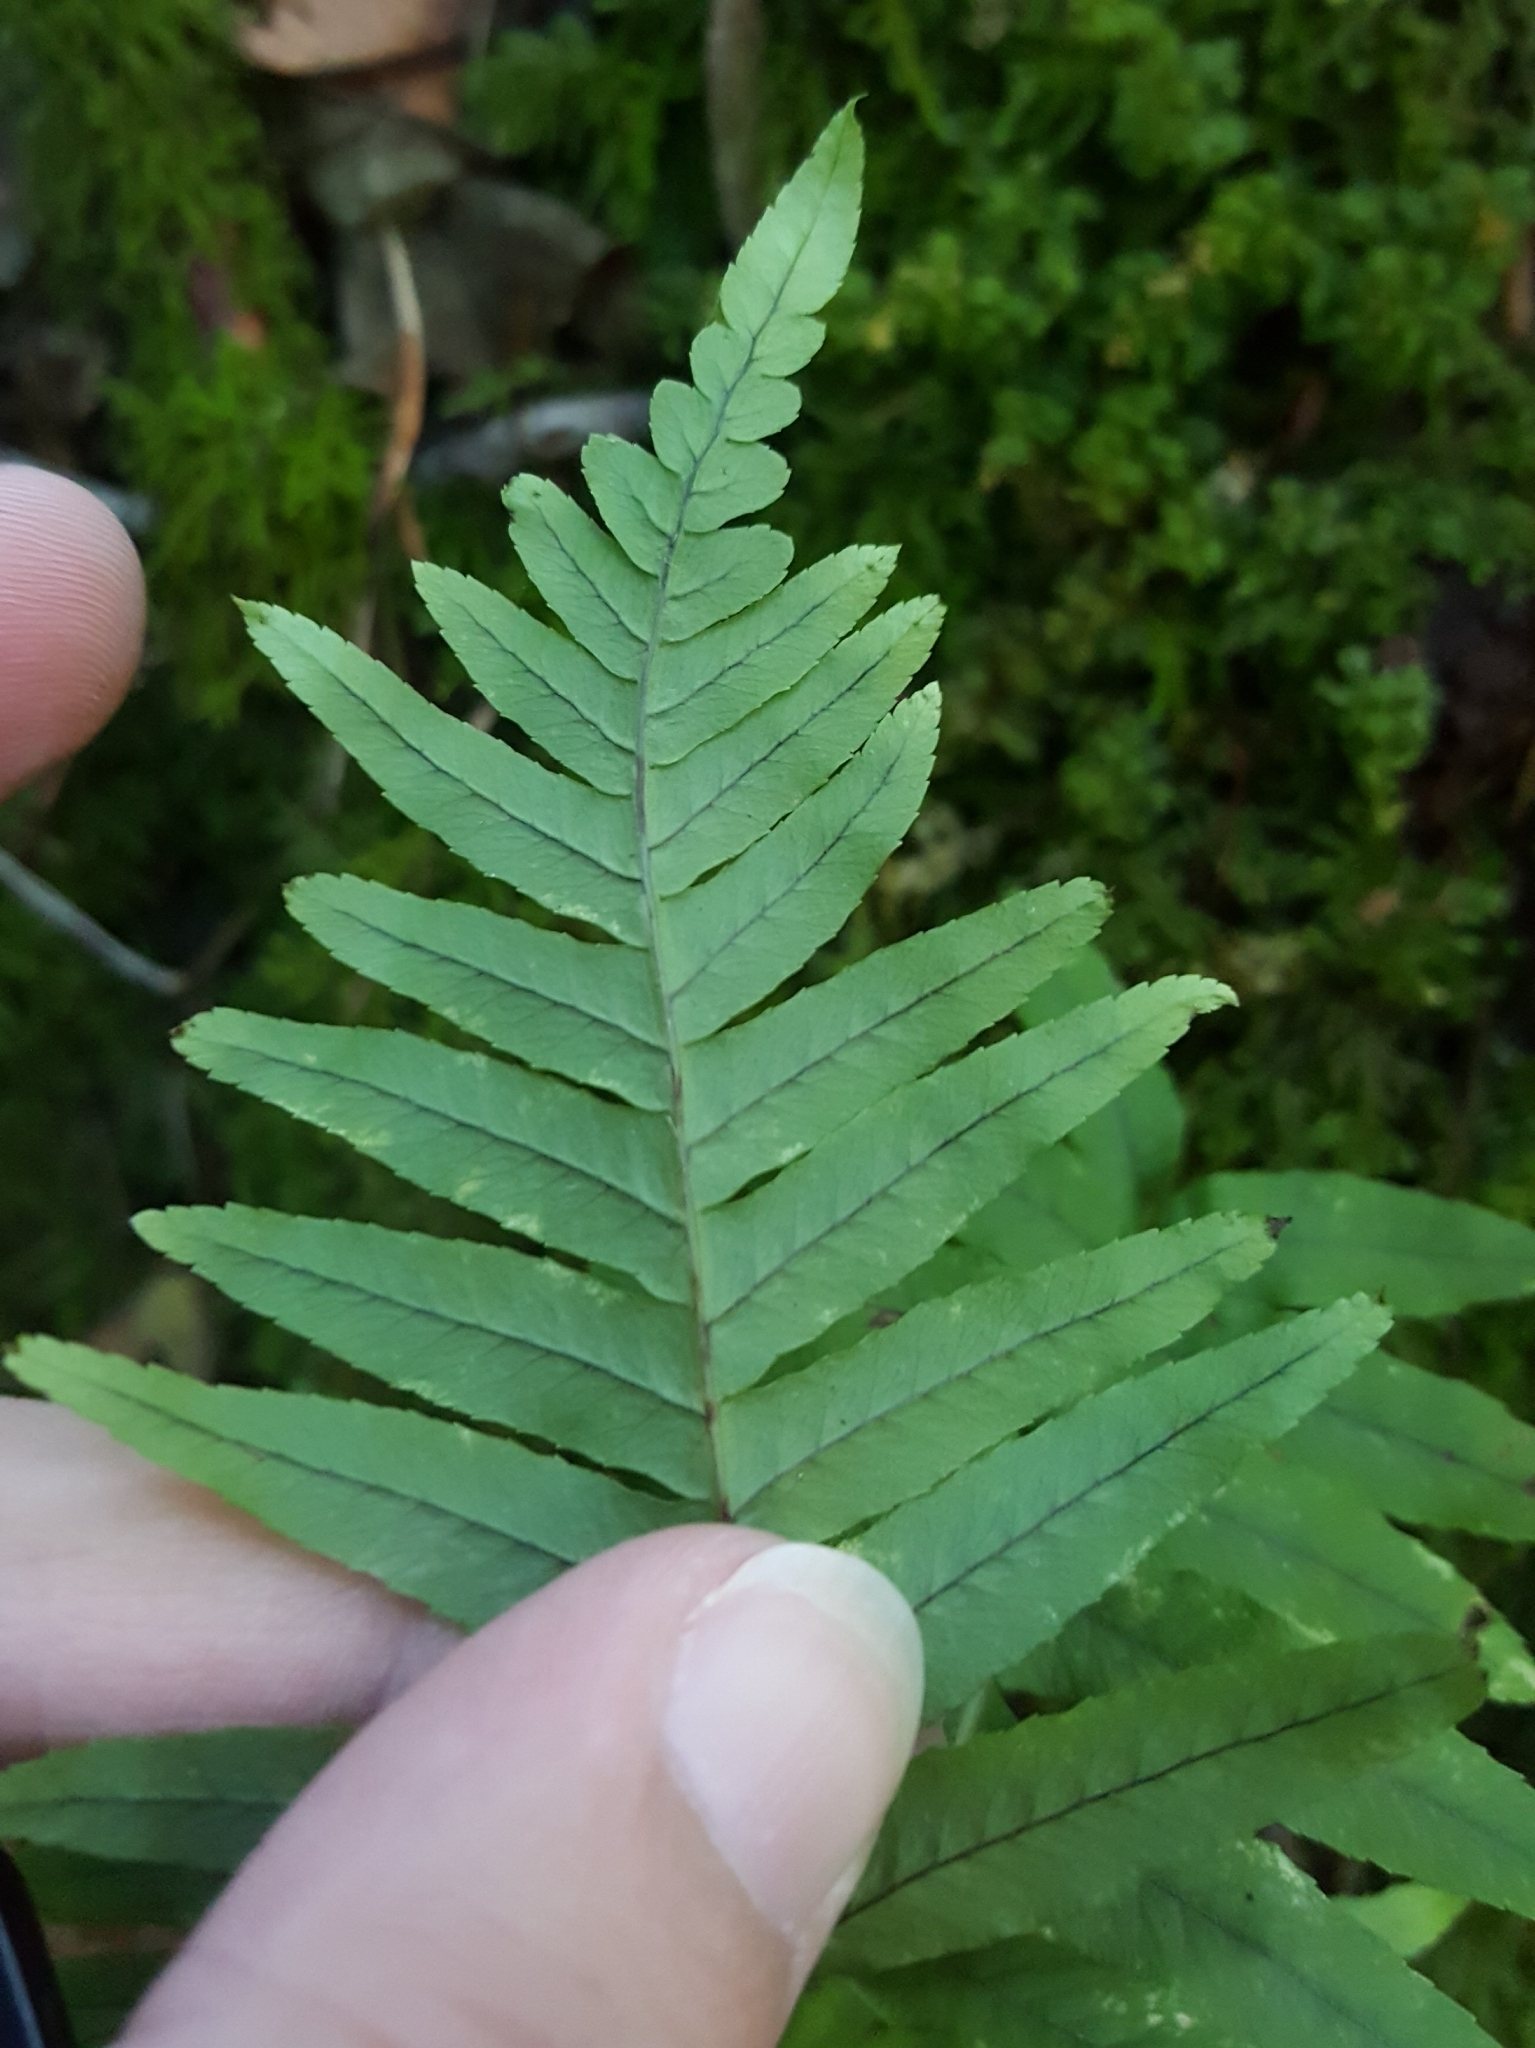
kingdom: Plantae
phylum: Tracheophyta
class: Polypodiopsida
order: Polypodiales
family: Polypodiaceae
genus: Polypodium
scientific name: Polypodium glycyrrhiza
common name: Licorice fern
